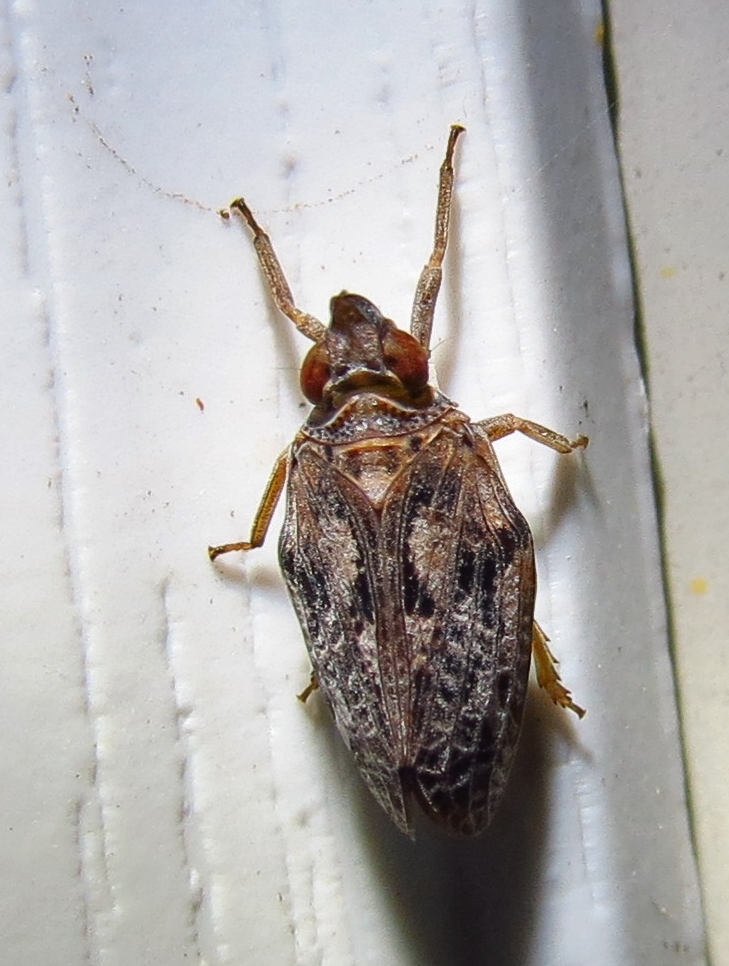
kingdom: Animalia
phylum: Arthropoda
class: Insecta
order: Hemiptera
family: Issidae
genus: Fowlerium
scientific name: Fowlerium acutum
